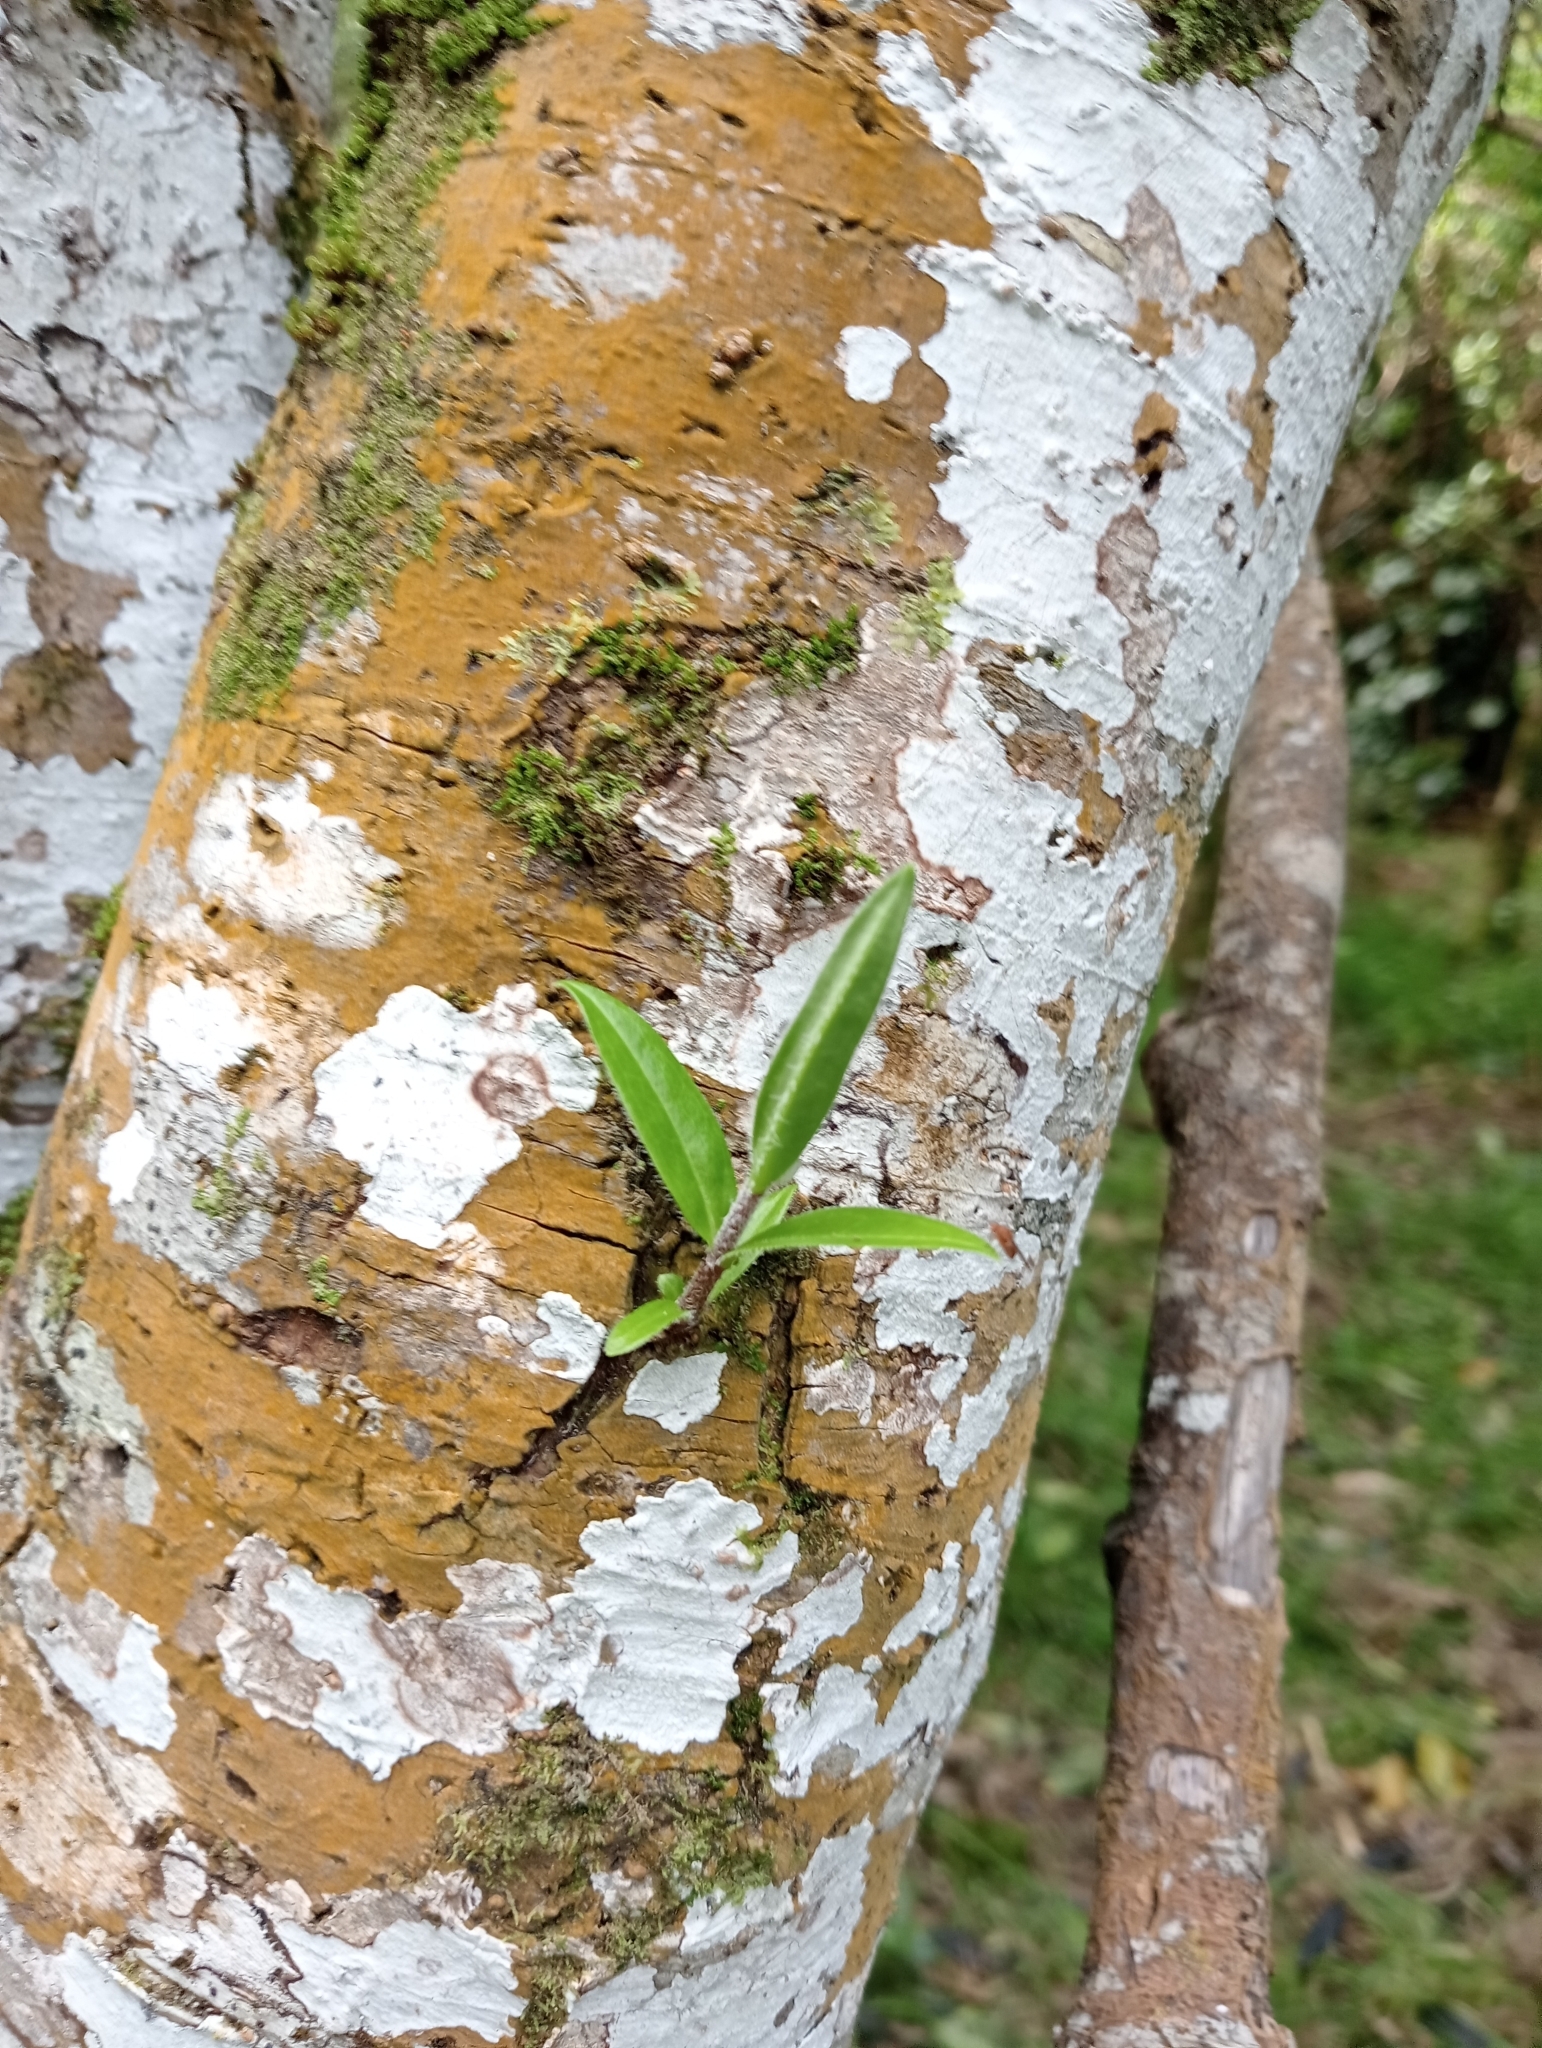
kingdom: Plantae
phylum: Tracheophyta
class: Magnoliopsida
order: Lamiales
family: Plantaginaceae
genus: Veronica
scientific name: Veronica barkeri
